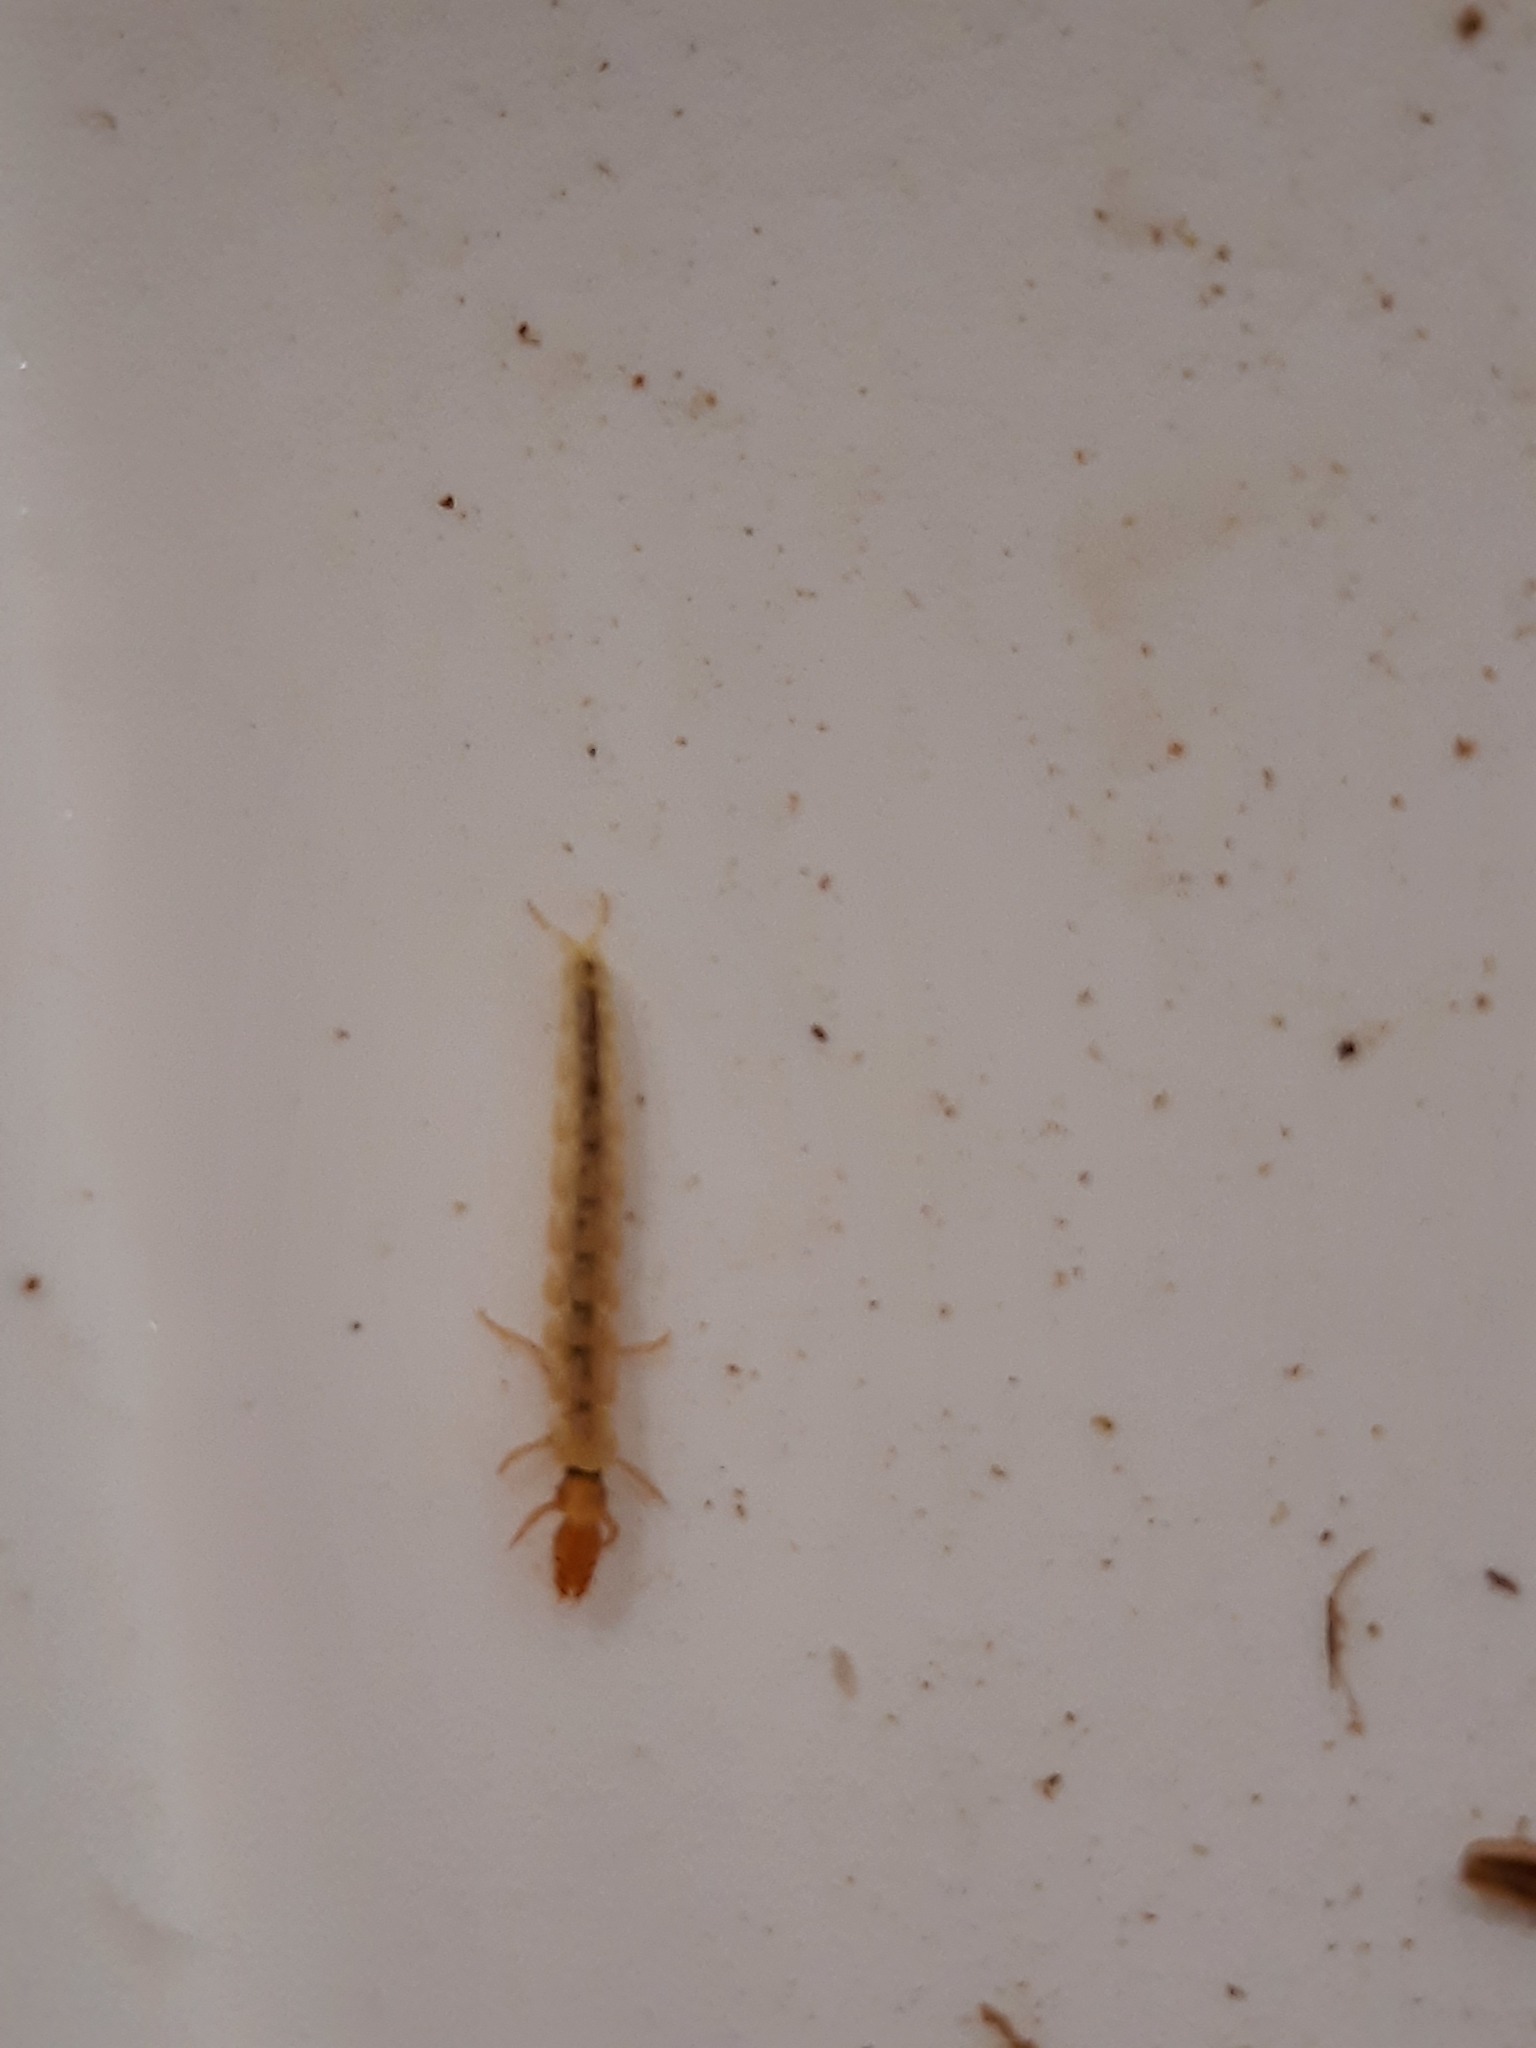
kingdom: Animalia
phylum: Arthropoda
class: Insecta
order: Trichoptera
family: Philopotamidae
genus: Hydrobiosella
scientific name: Hydrobiosella mixta
